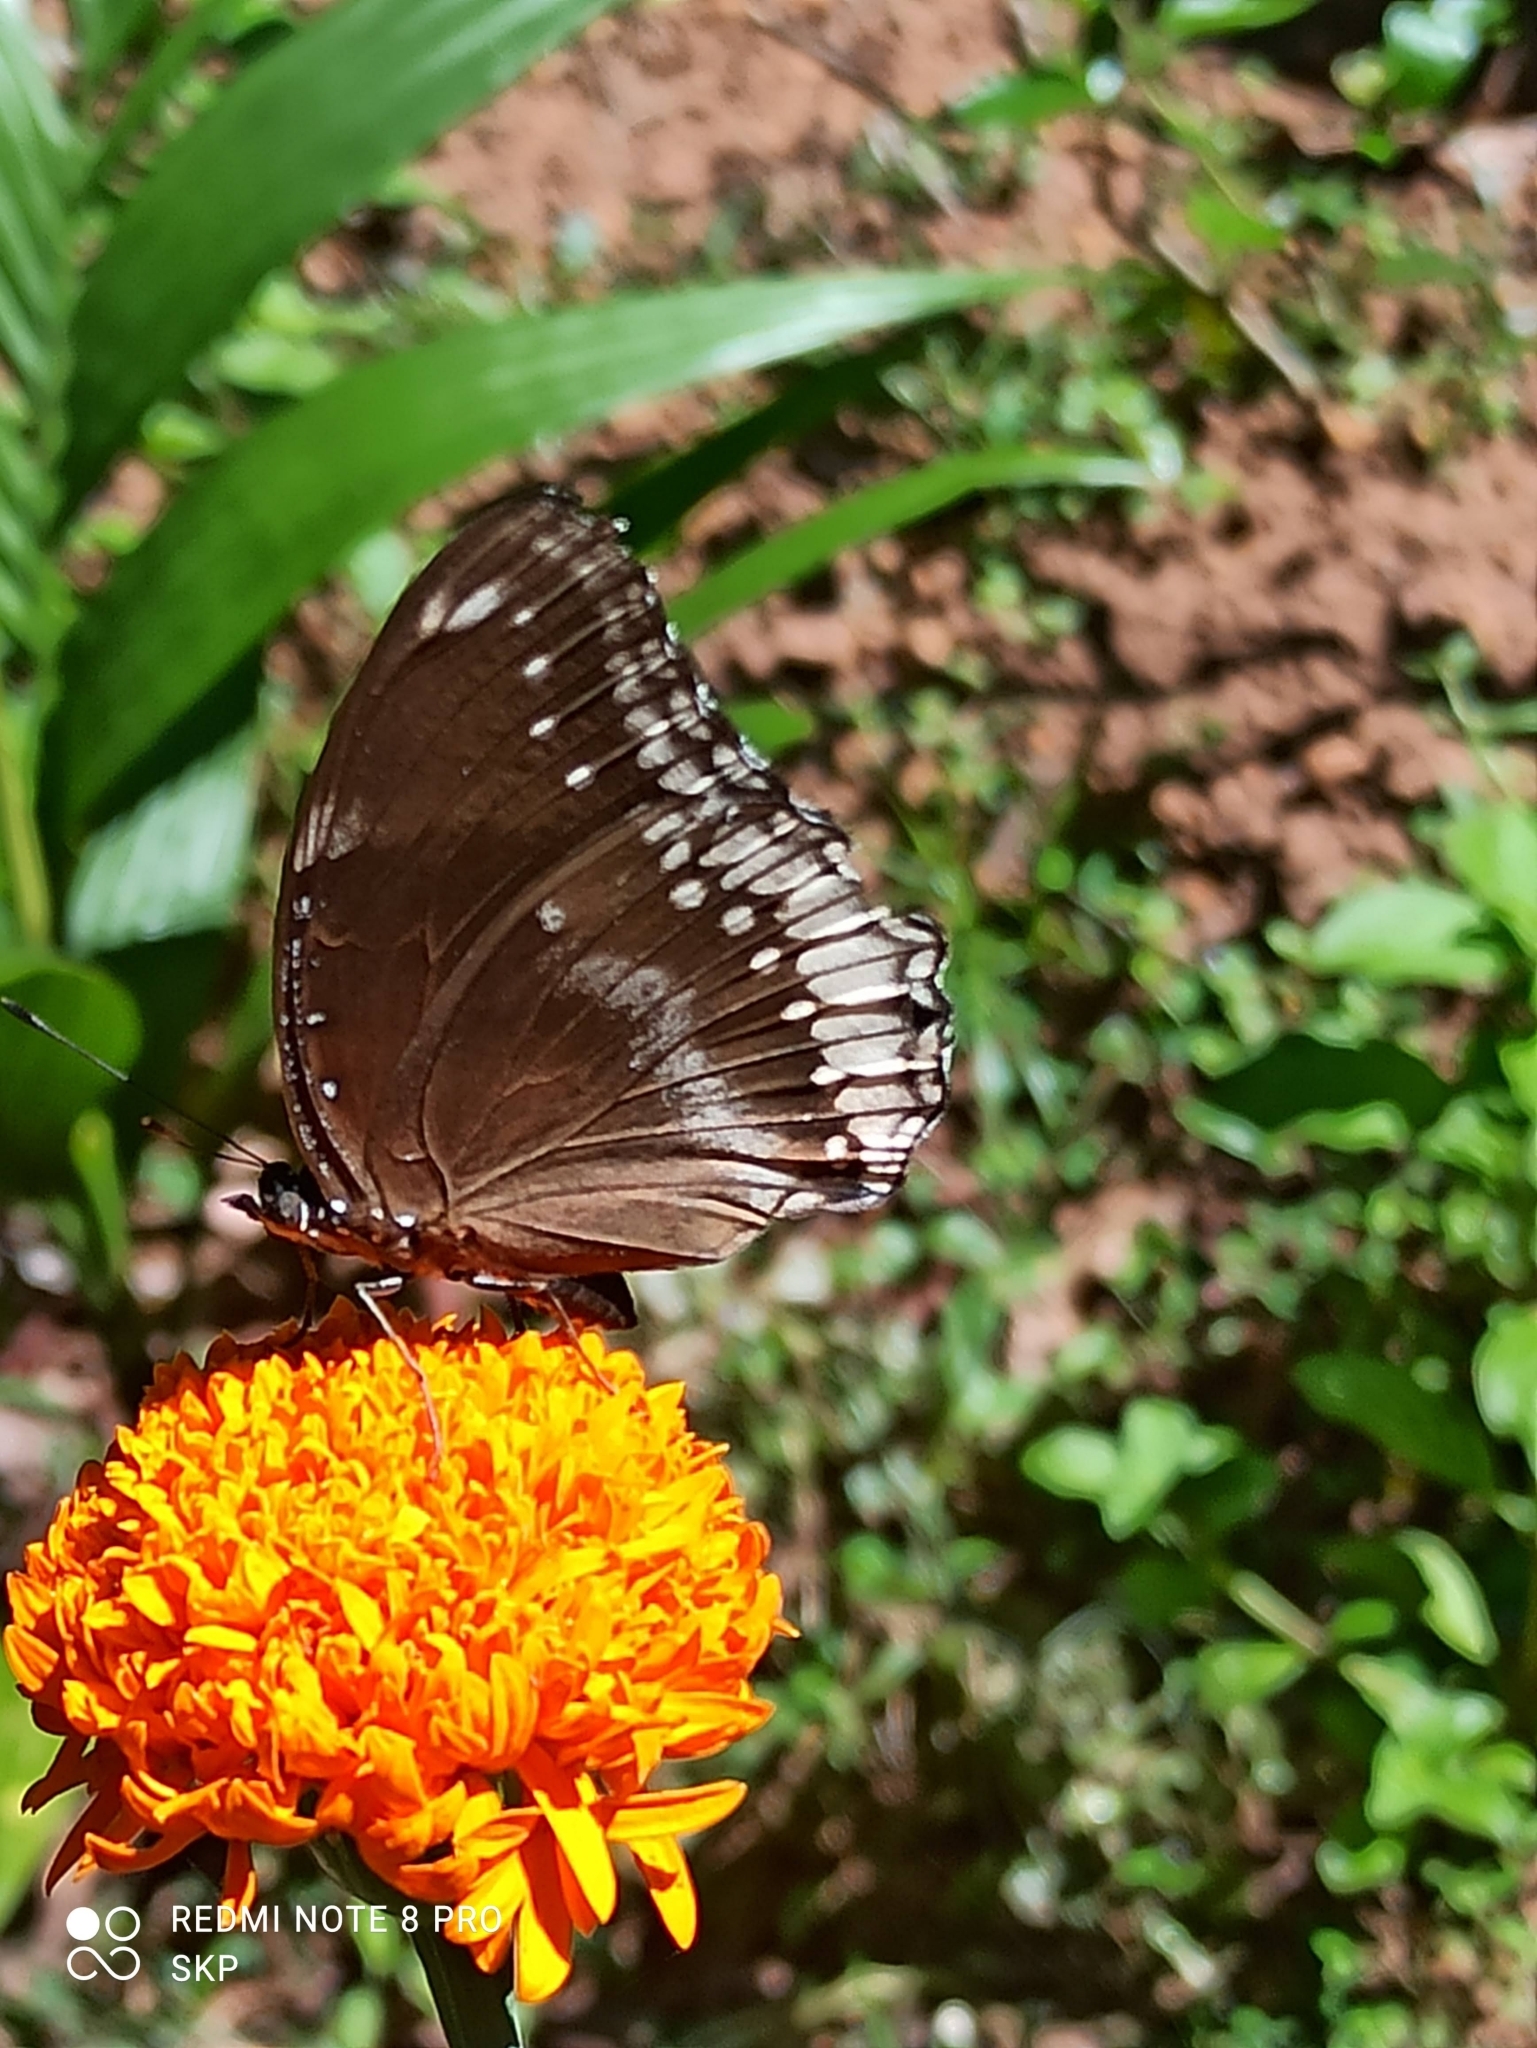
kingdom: Animalia
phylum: Arthropoda
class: Insecta
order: Lepidoptera
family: Nymphalidae
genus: Hypolimnas
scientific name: Hypolimnas bolina
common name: Great eggfly
